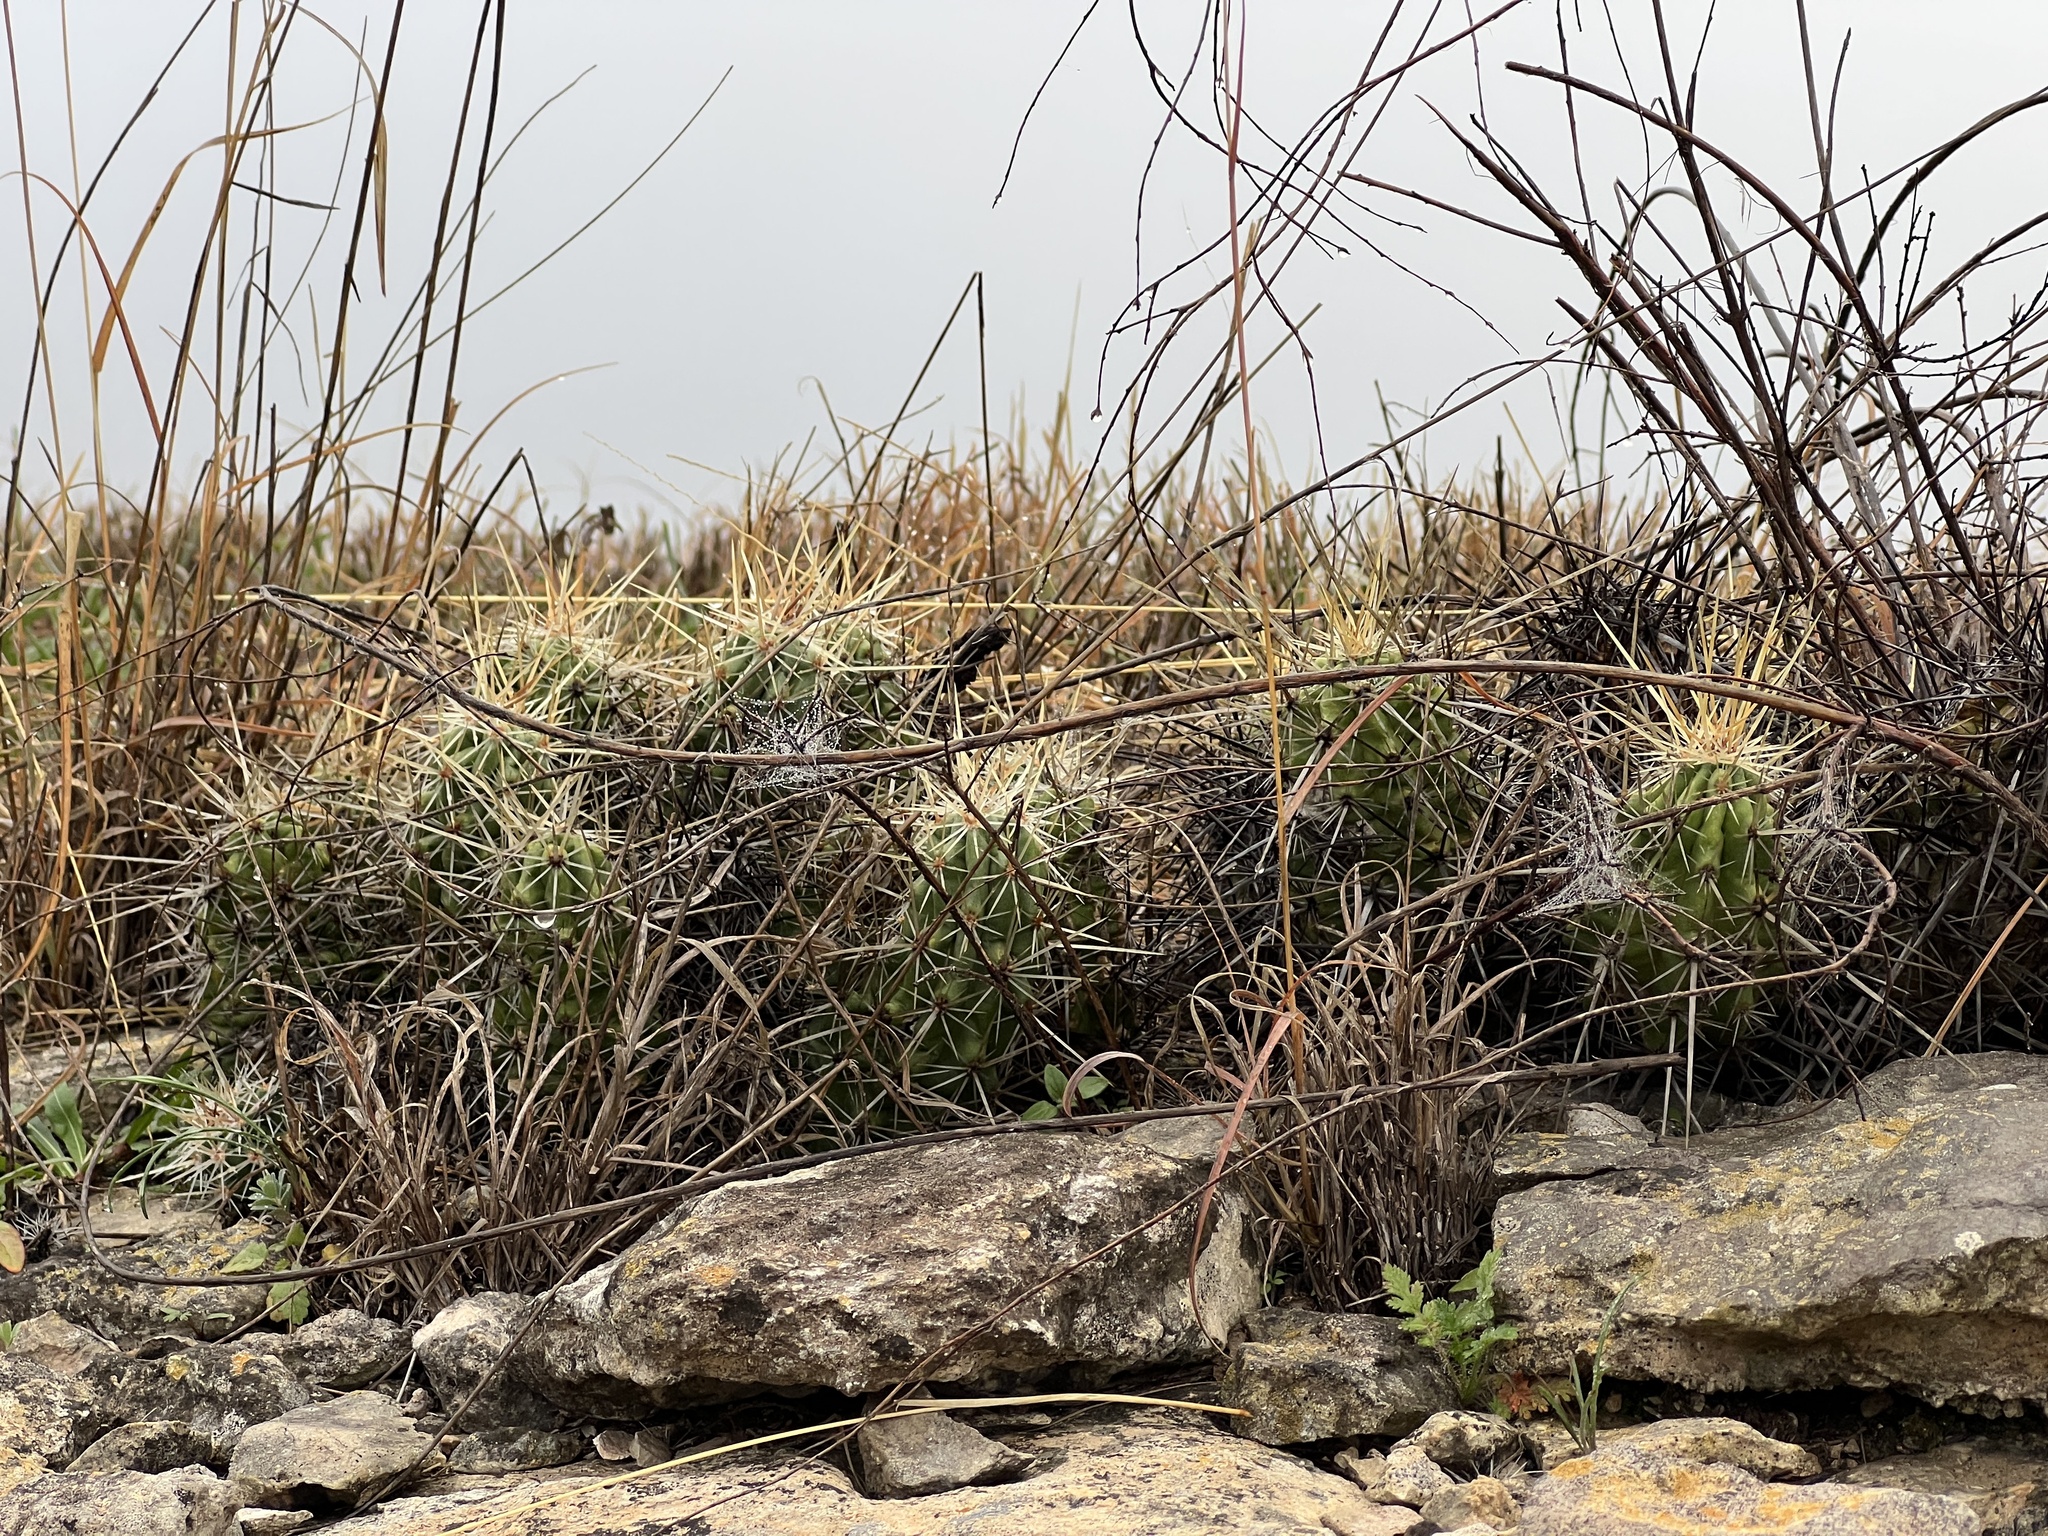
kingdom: Plantae
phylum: Tracheophyta
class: Magnoliopsida
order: Caryophyllales
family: Cactaceae
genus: Echinocereus
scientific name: Echinocereus enneacanthus
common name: Pitaya
